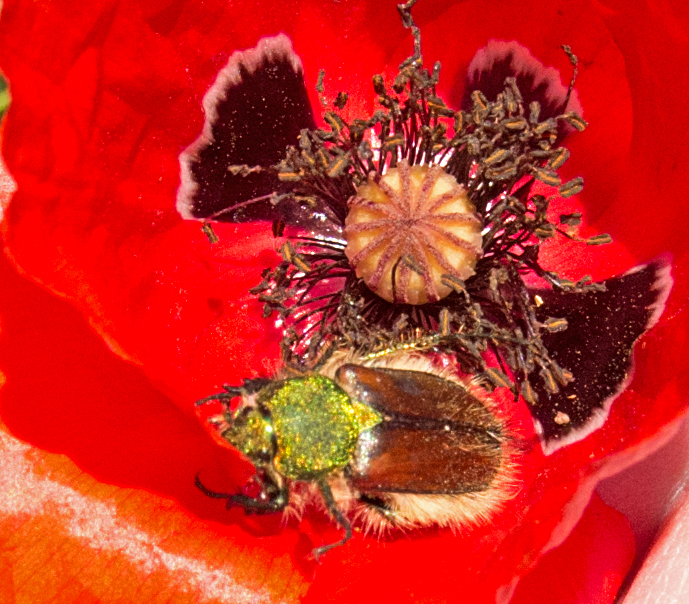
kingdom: Animalia
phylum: Arthropoda
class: Insecta
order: Coleoptera
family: Glaphyridae
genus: Pygopleurus
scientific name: Pygopleurus chrysonotus
